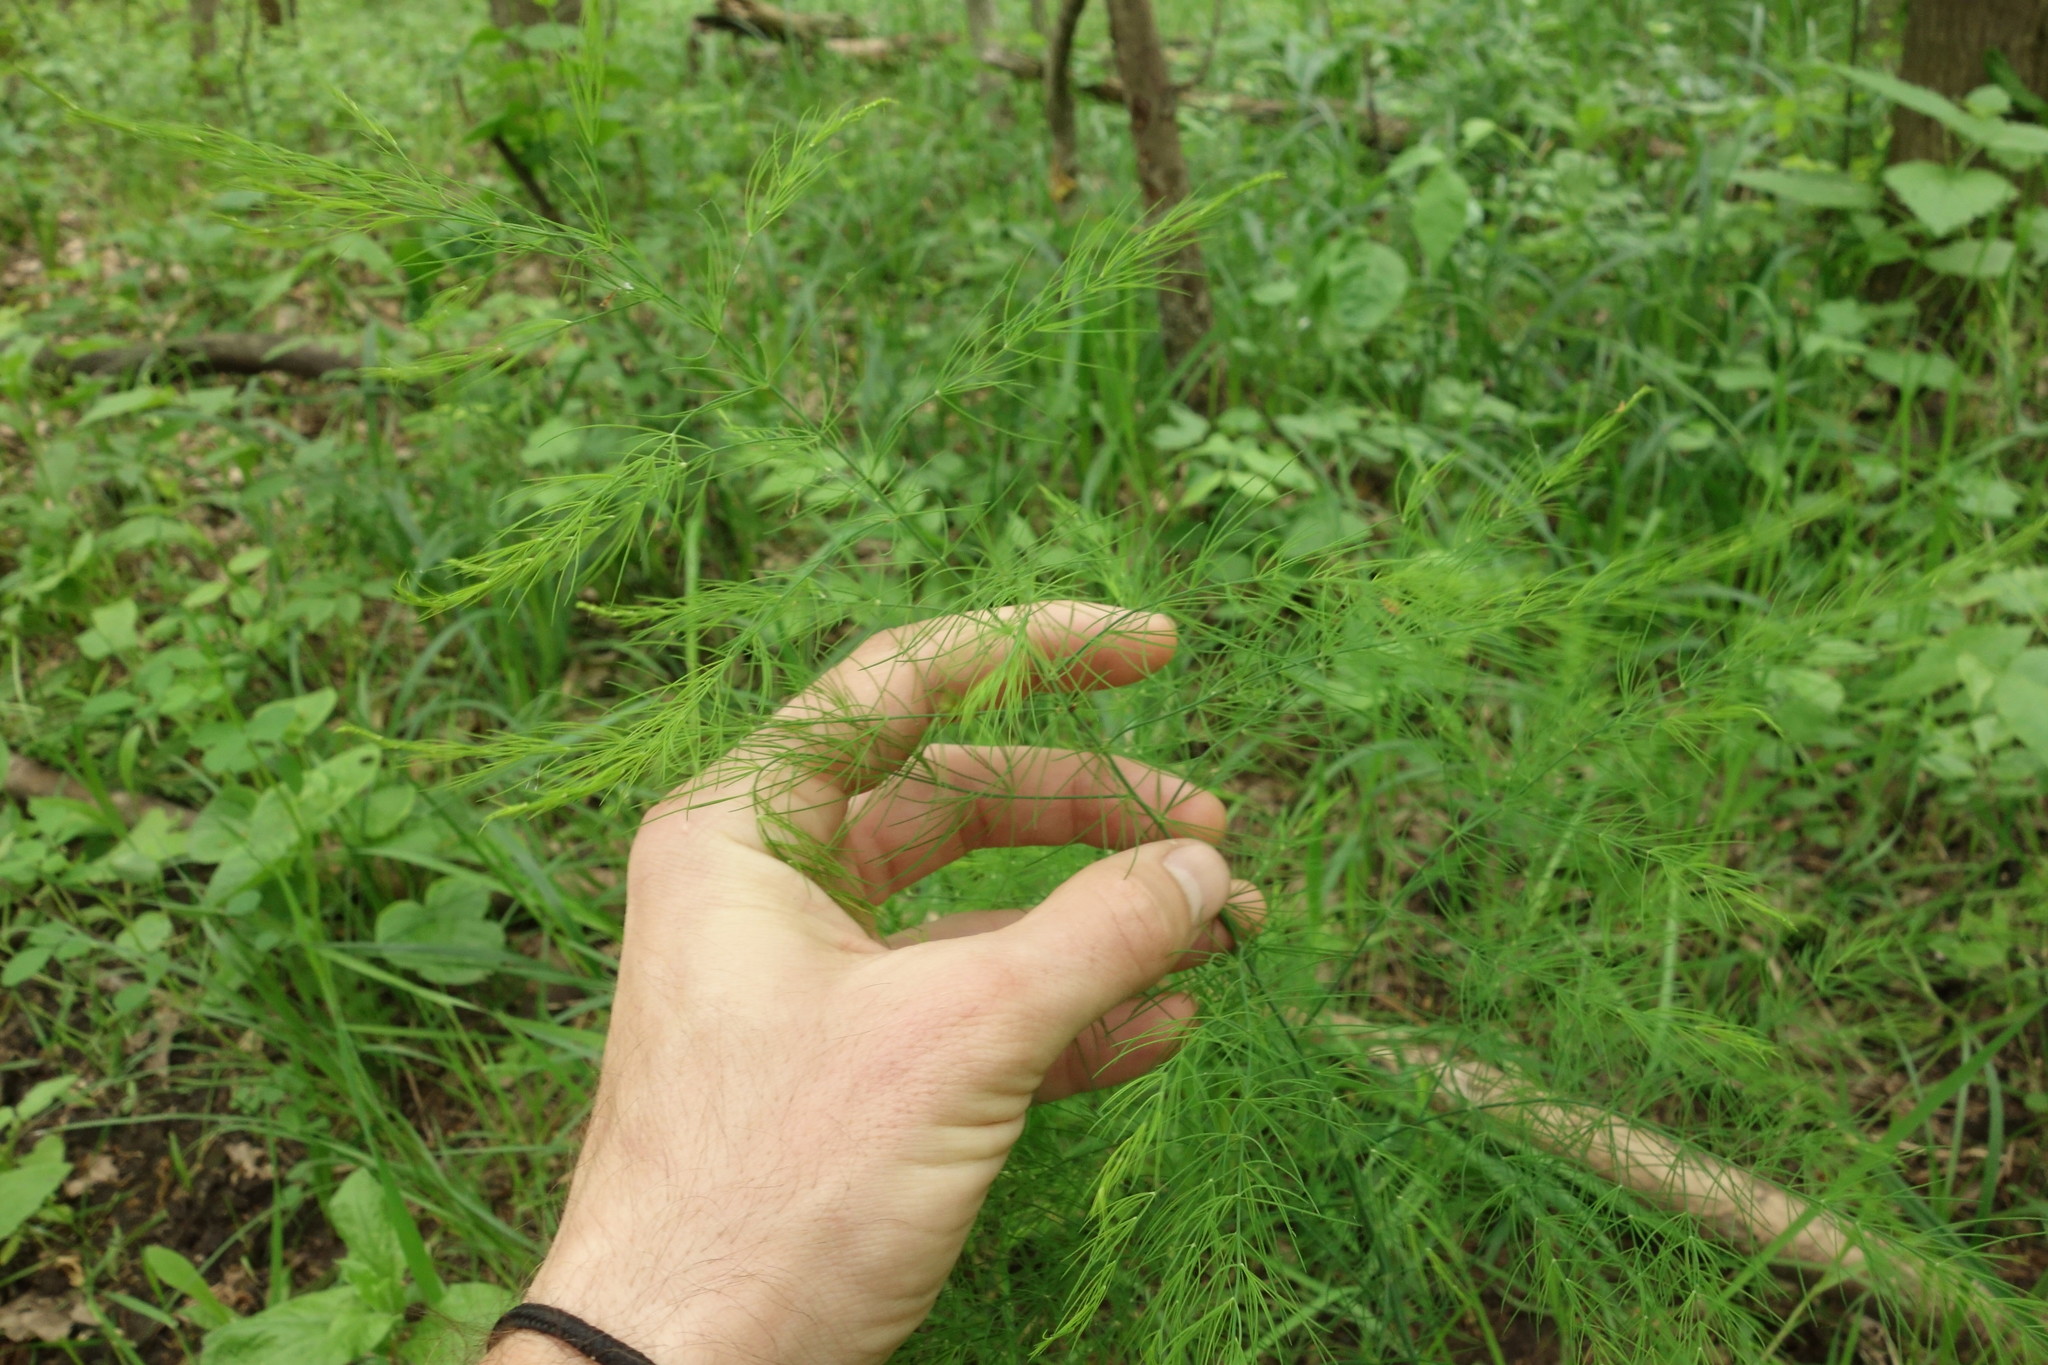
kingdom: Plantae
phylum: Tracheophyta
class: Liliopsida
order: Asparagales
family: Asparagaceae
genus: Asparagus
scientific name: Asparagus officinalis
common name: Garden asparagus
